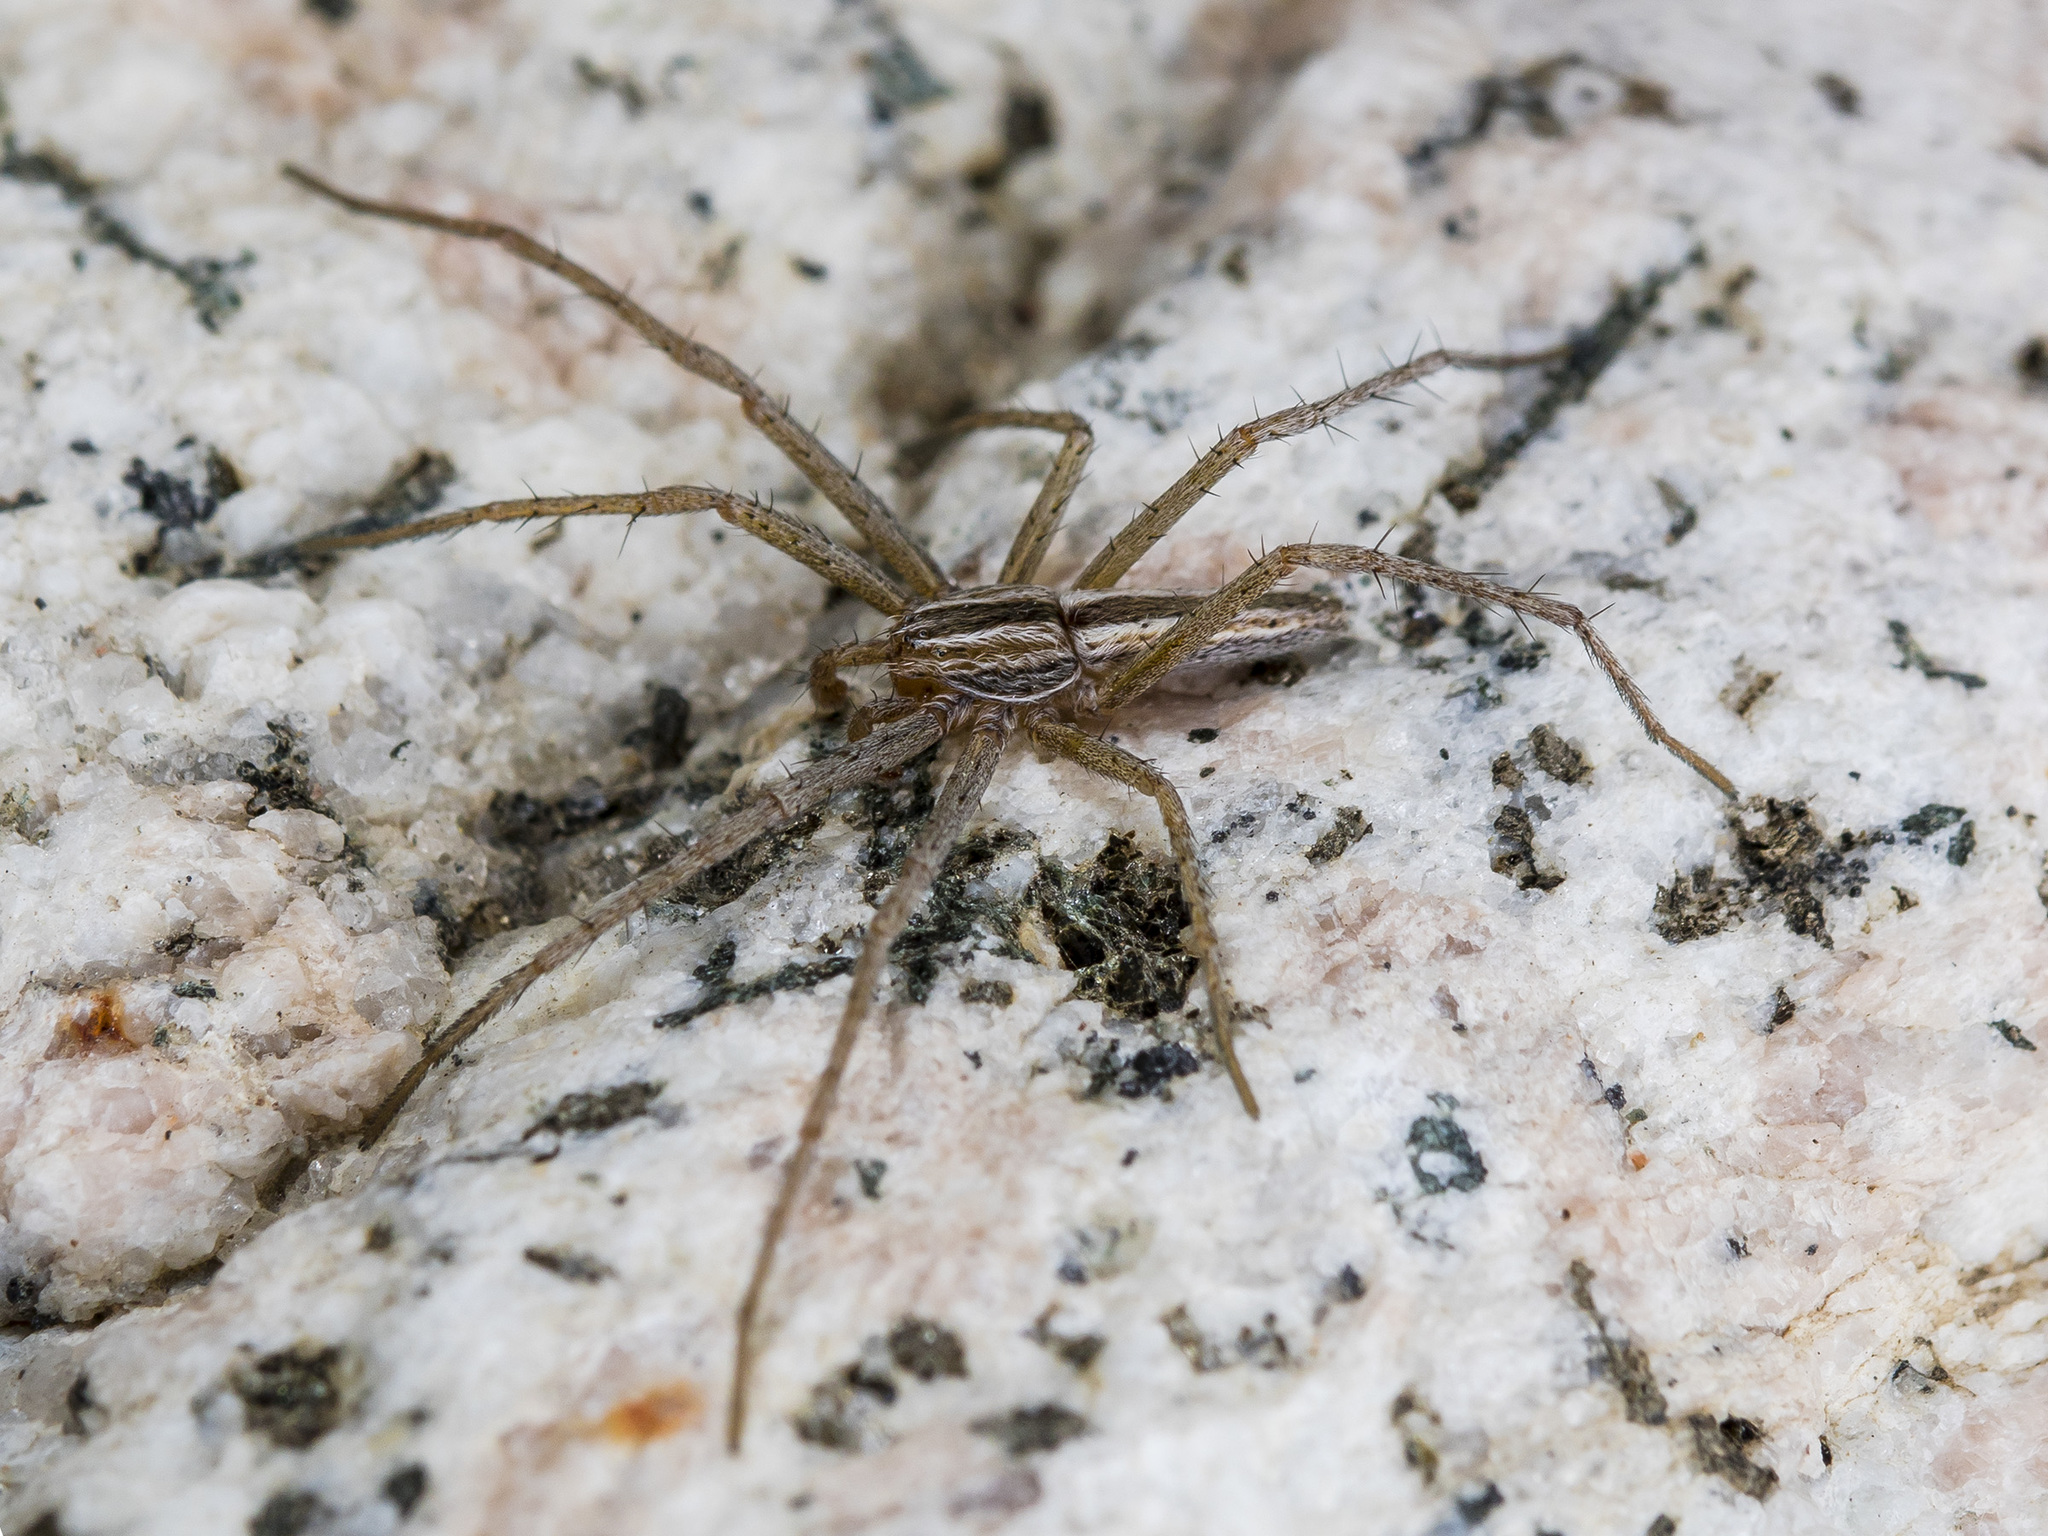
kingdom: Animalia
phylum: Arthropoda
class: Arachnida
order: Araneae
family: Philodromidae
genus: Tibellus
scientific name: Tibellus oblongus
